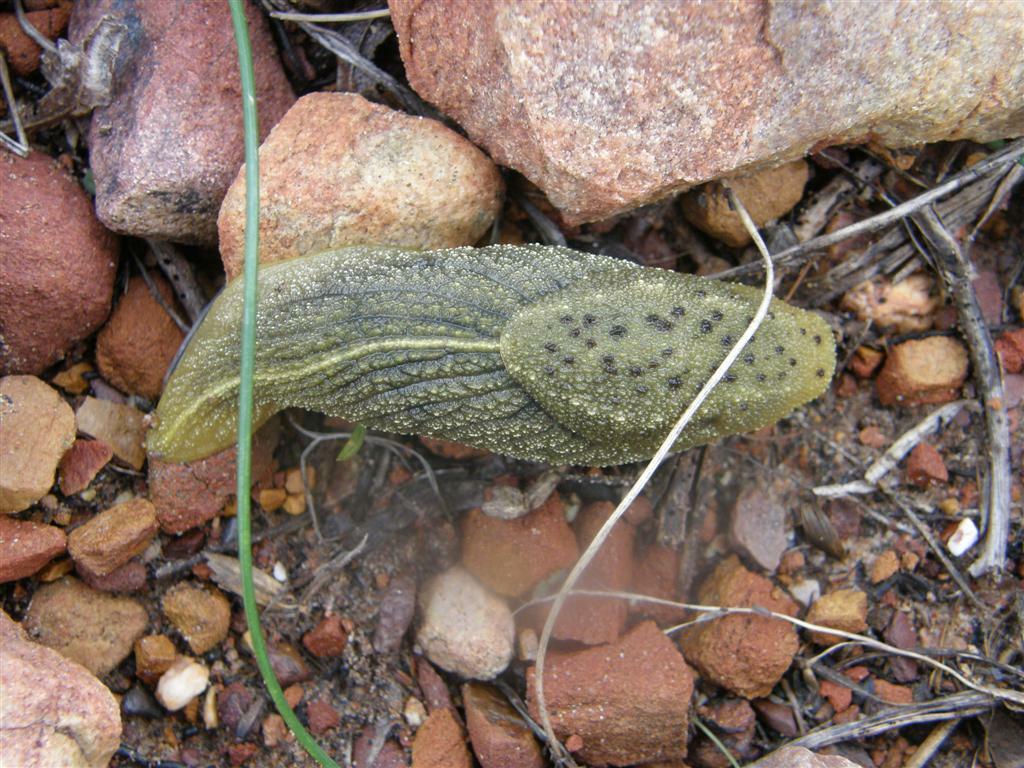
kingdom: Animalia
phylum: Mollusca
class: Gastropoda
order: Stylommatophora
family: Oopeltidae
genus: Oopelta
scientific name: Oopelta nigropunctata
